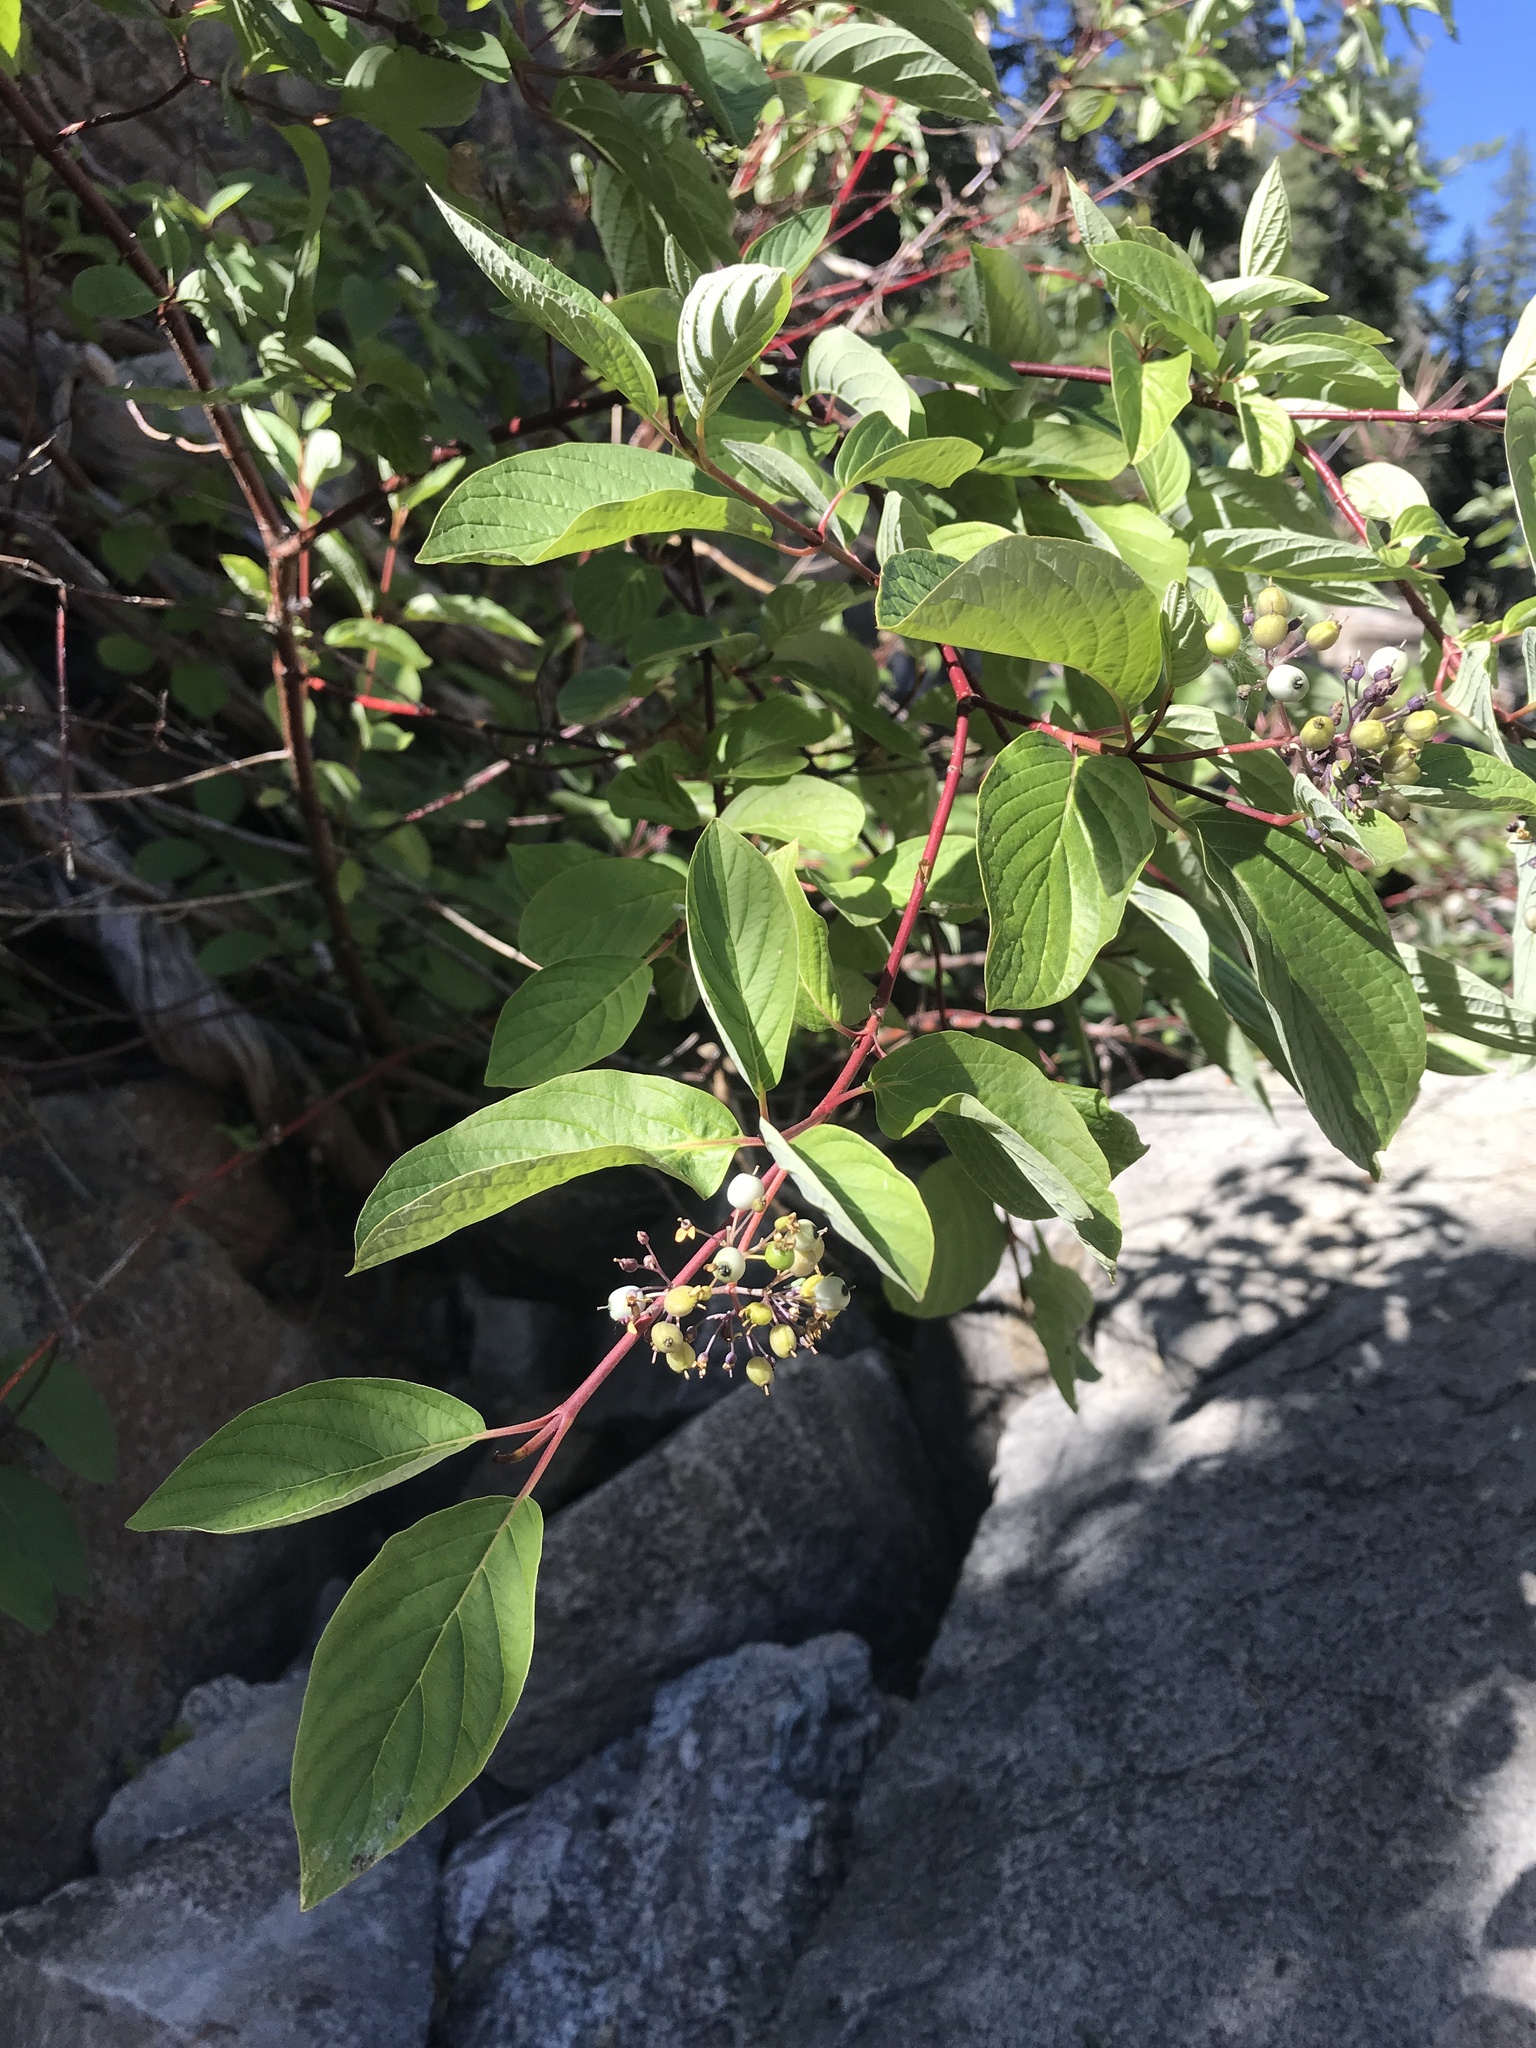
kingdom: Plantae
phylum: Tracheophyta
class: Magnoliopsida
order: Cornales
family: Cornaceae
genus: Cornus
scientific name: Cornus sericea
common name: Red-osier dogwood
